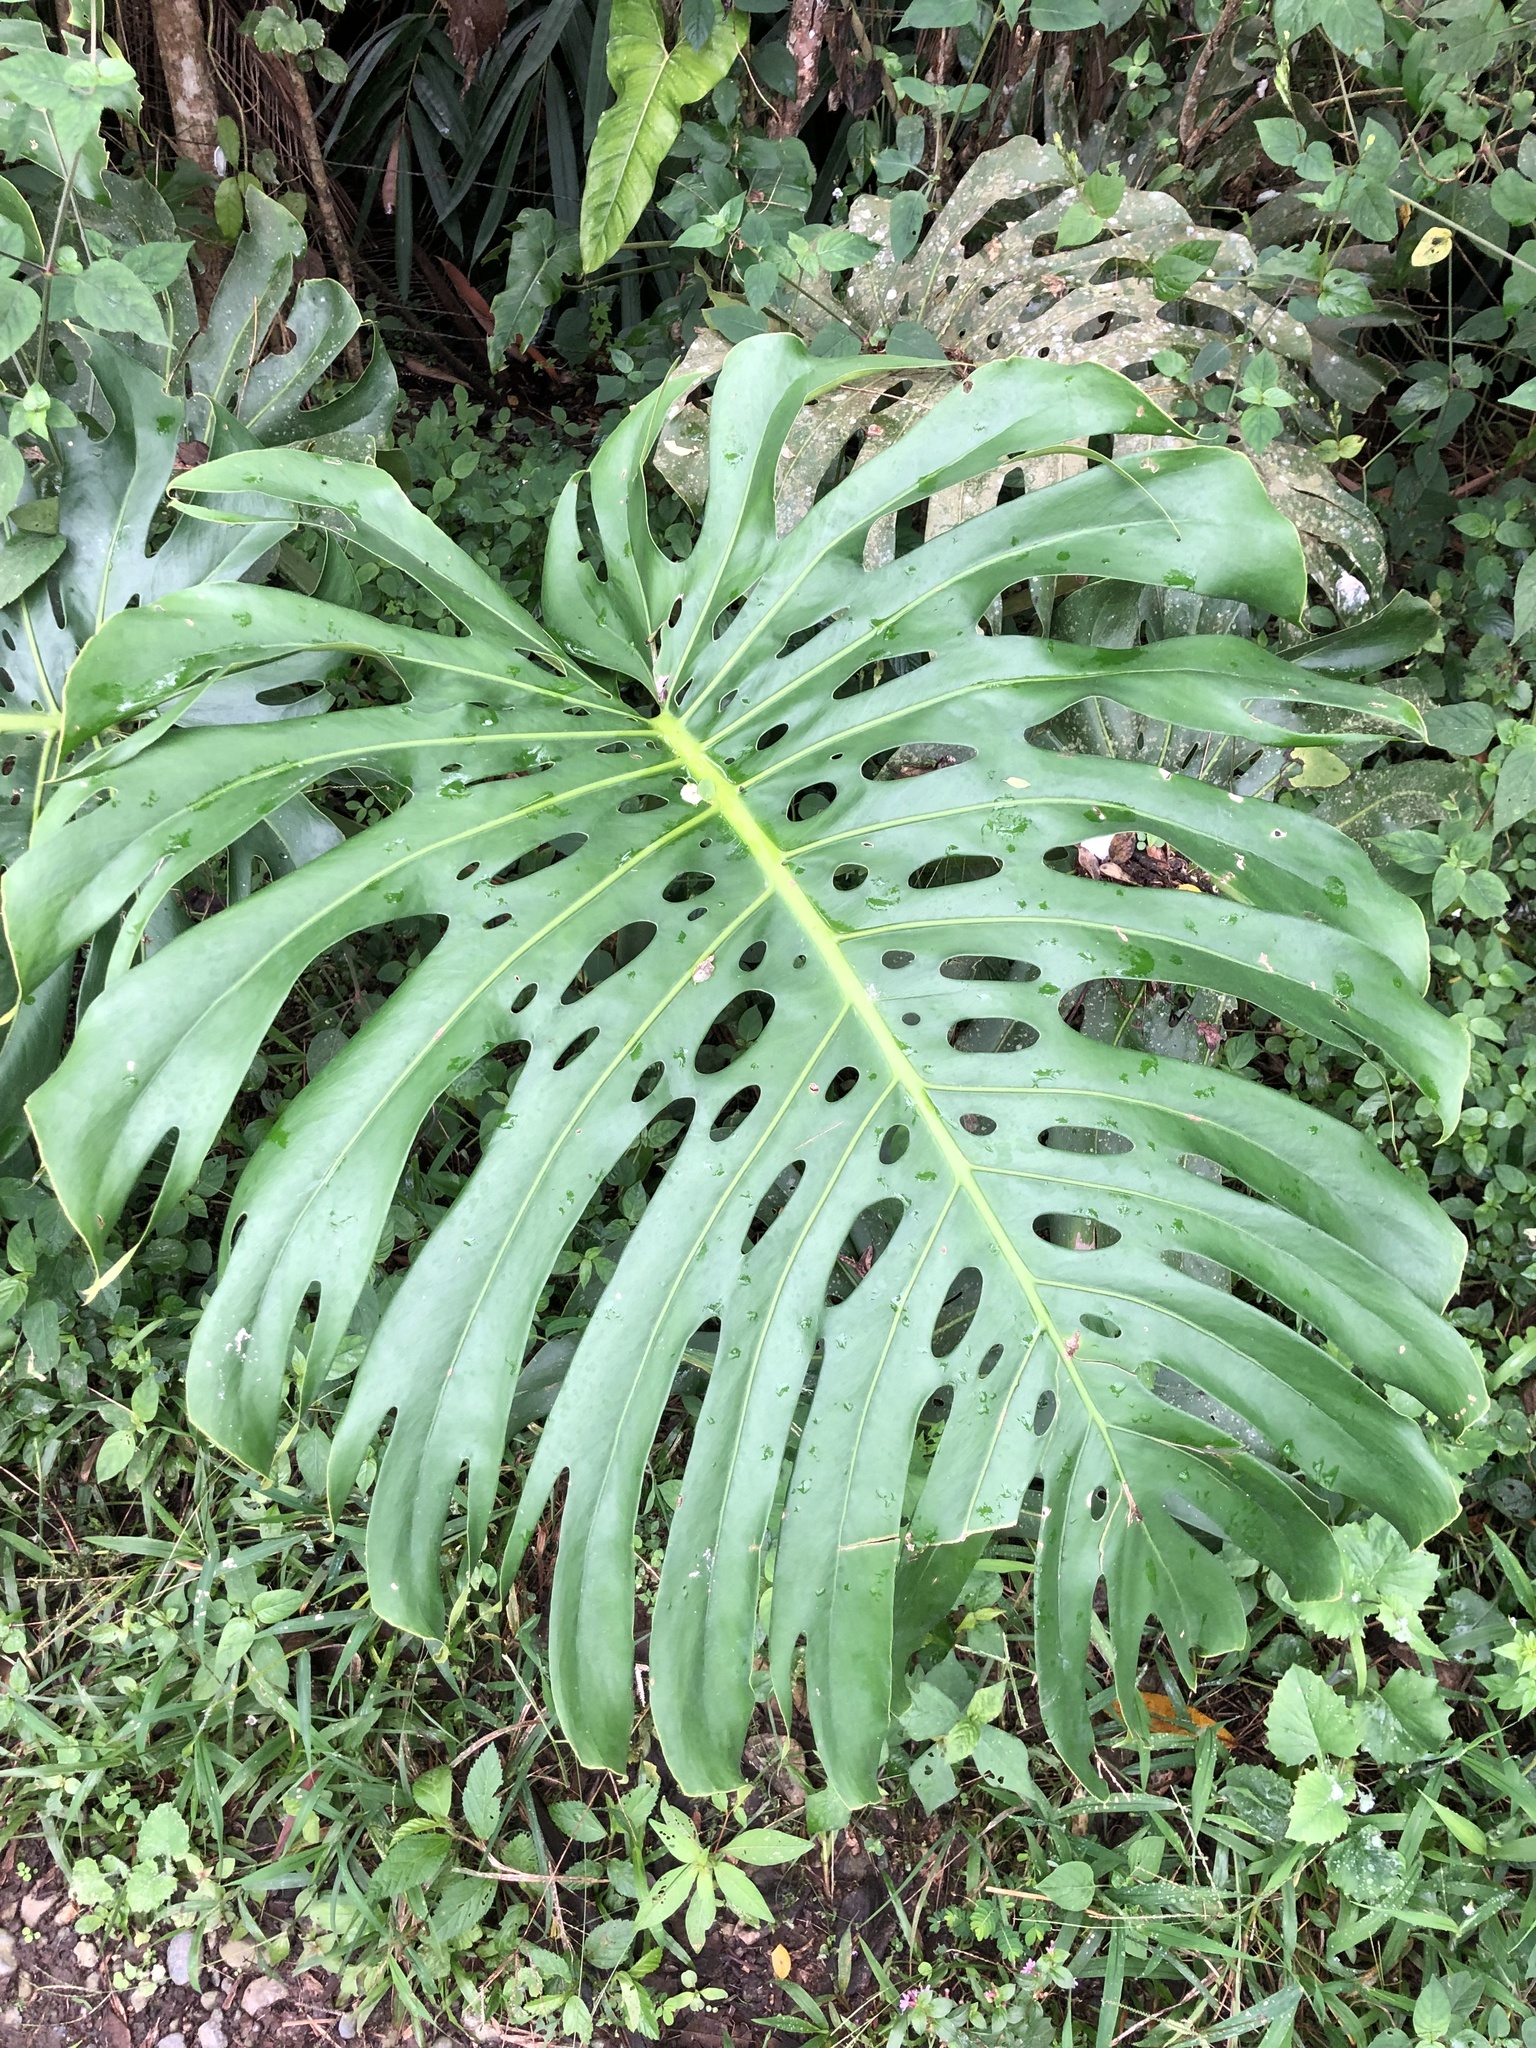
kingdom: Plantae
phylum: Tracheophyta
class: Liliopsida
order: Alismatales
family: Araceae
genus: Monstera
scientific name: Monstera deliciosa
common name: Cut-leaf-philodendron
